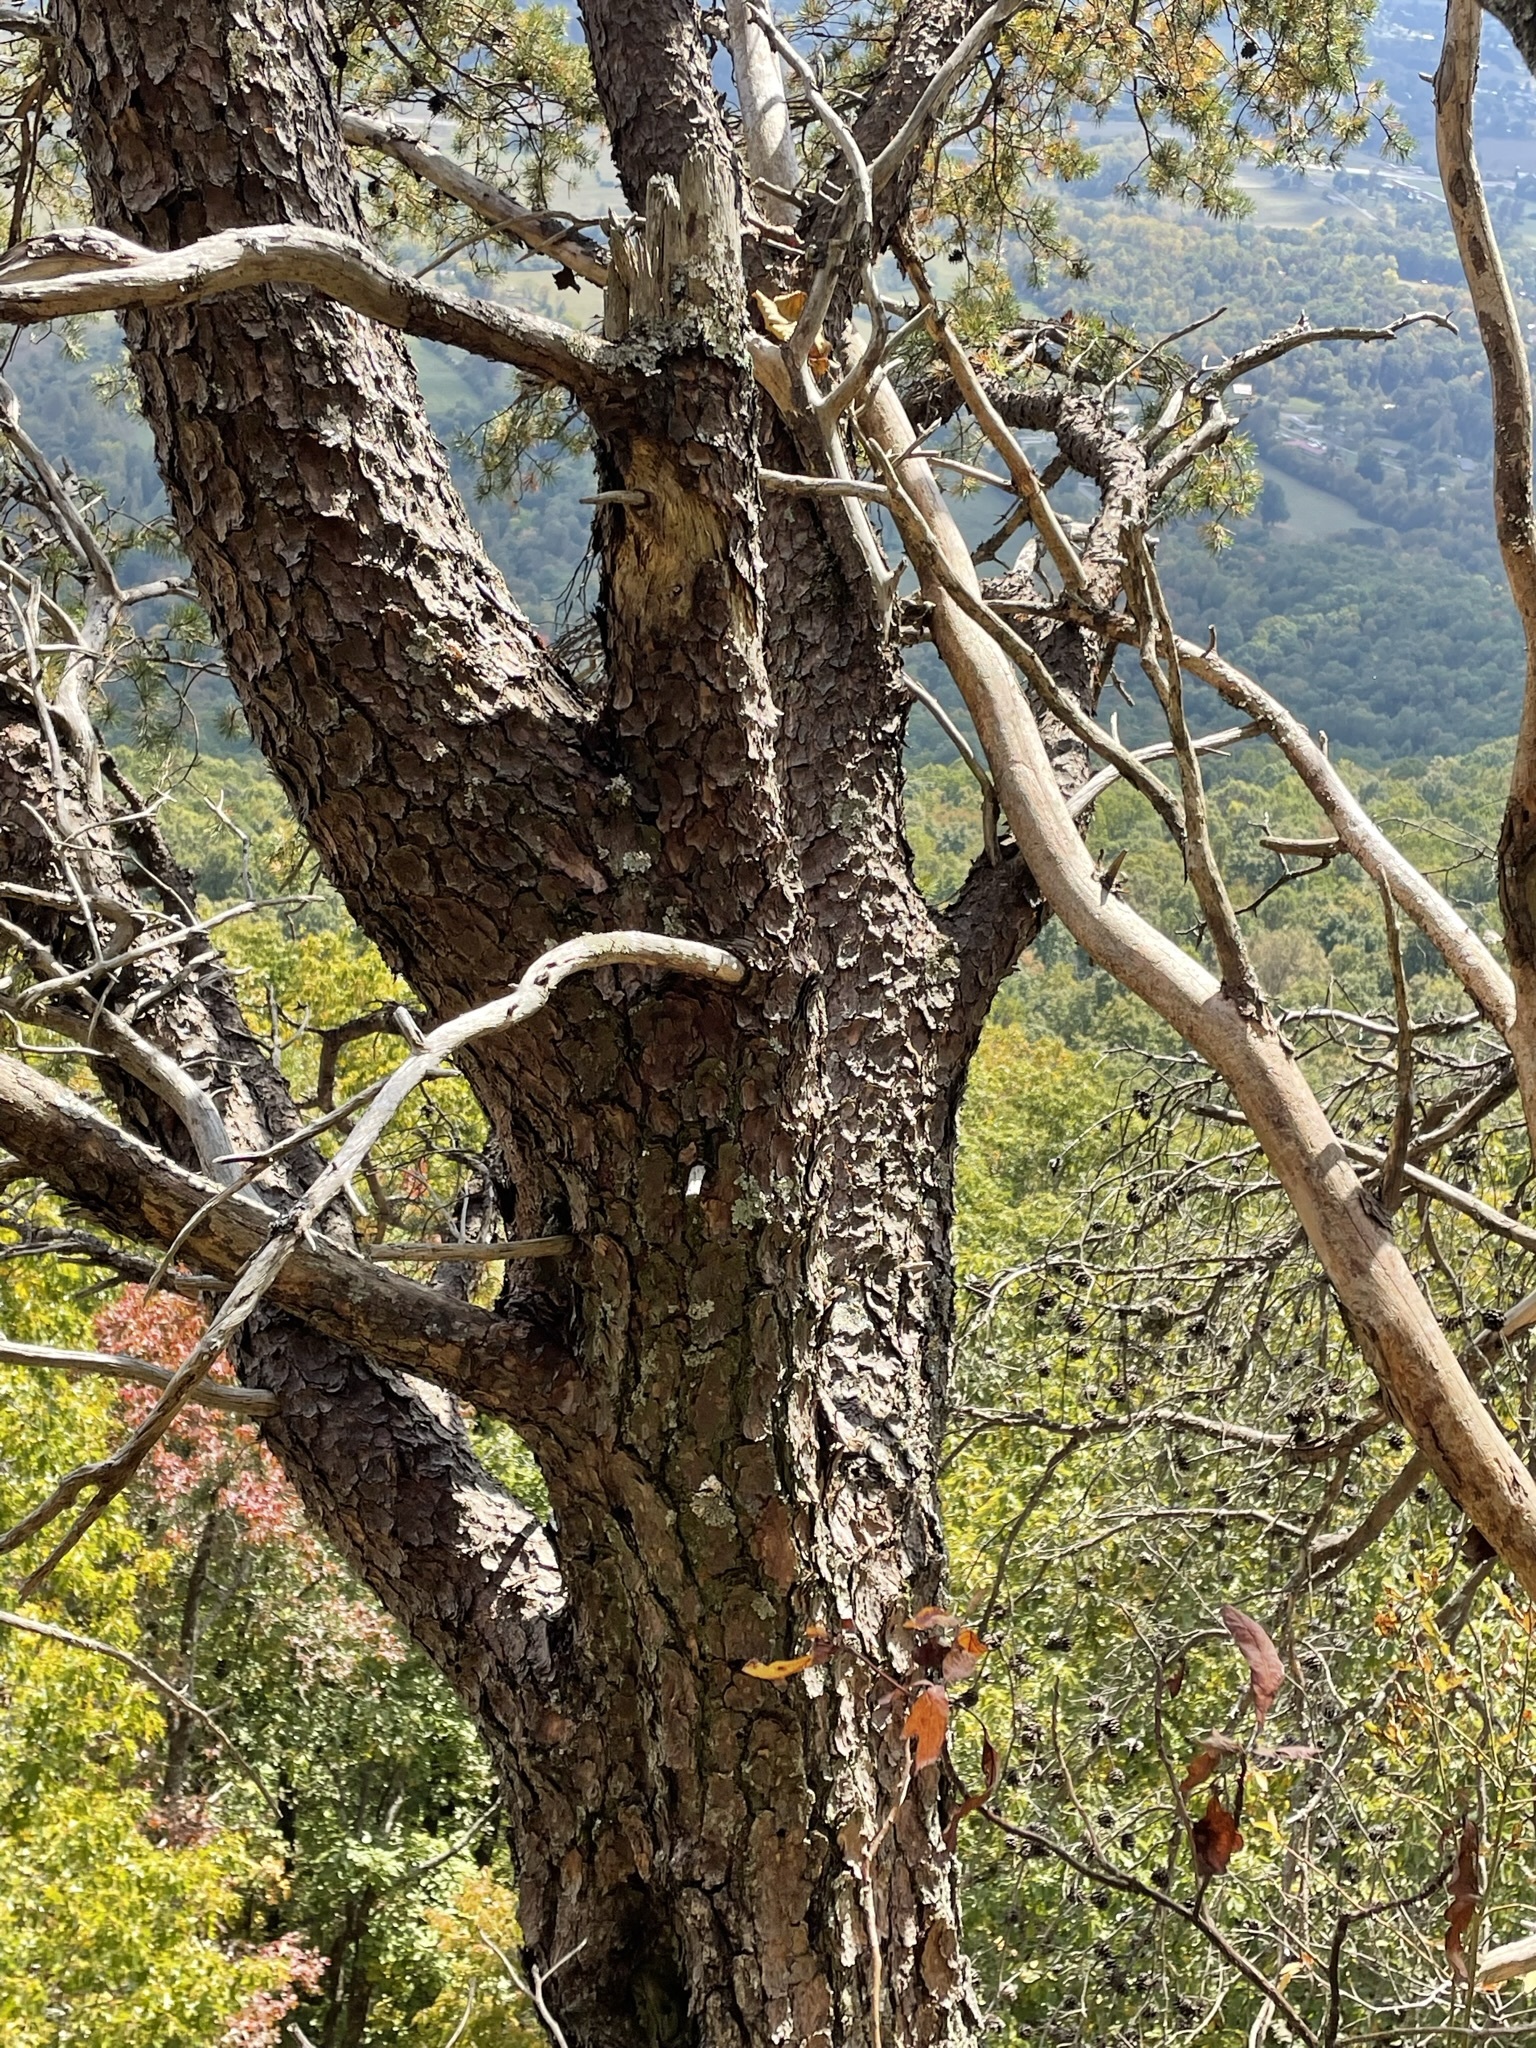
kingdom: Plantae
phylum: Tracheophyta
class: Pinopsida
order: Pinales
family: Pinaceae
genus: Pinus
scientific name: Pinus virginiana
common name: Scrub pine
